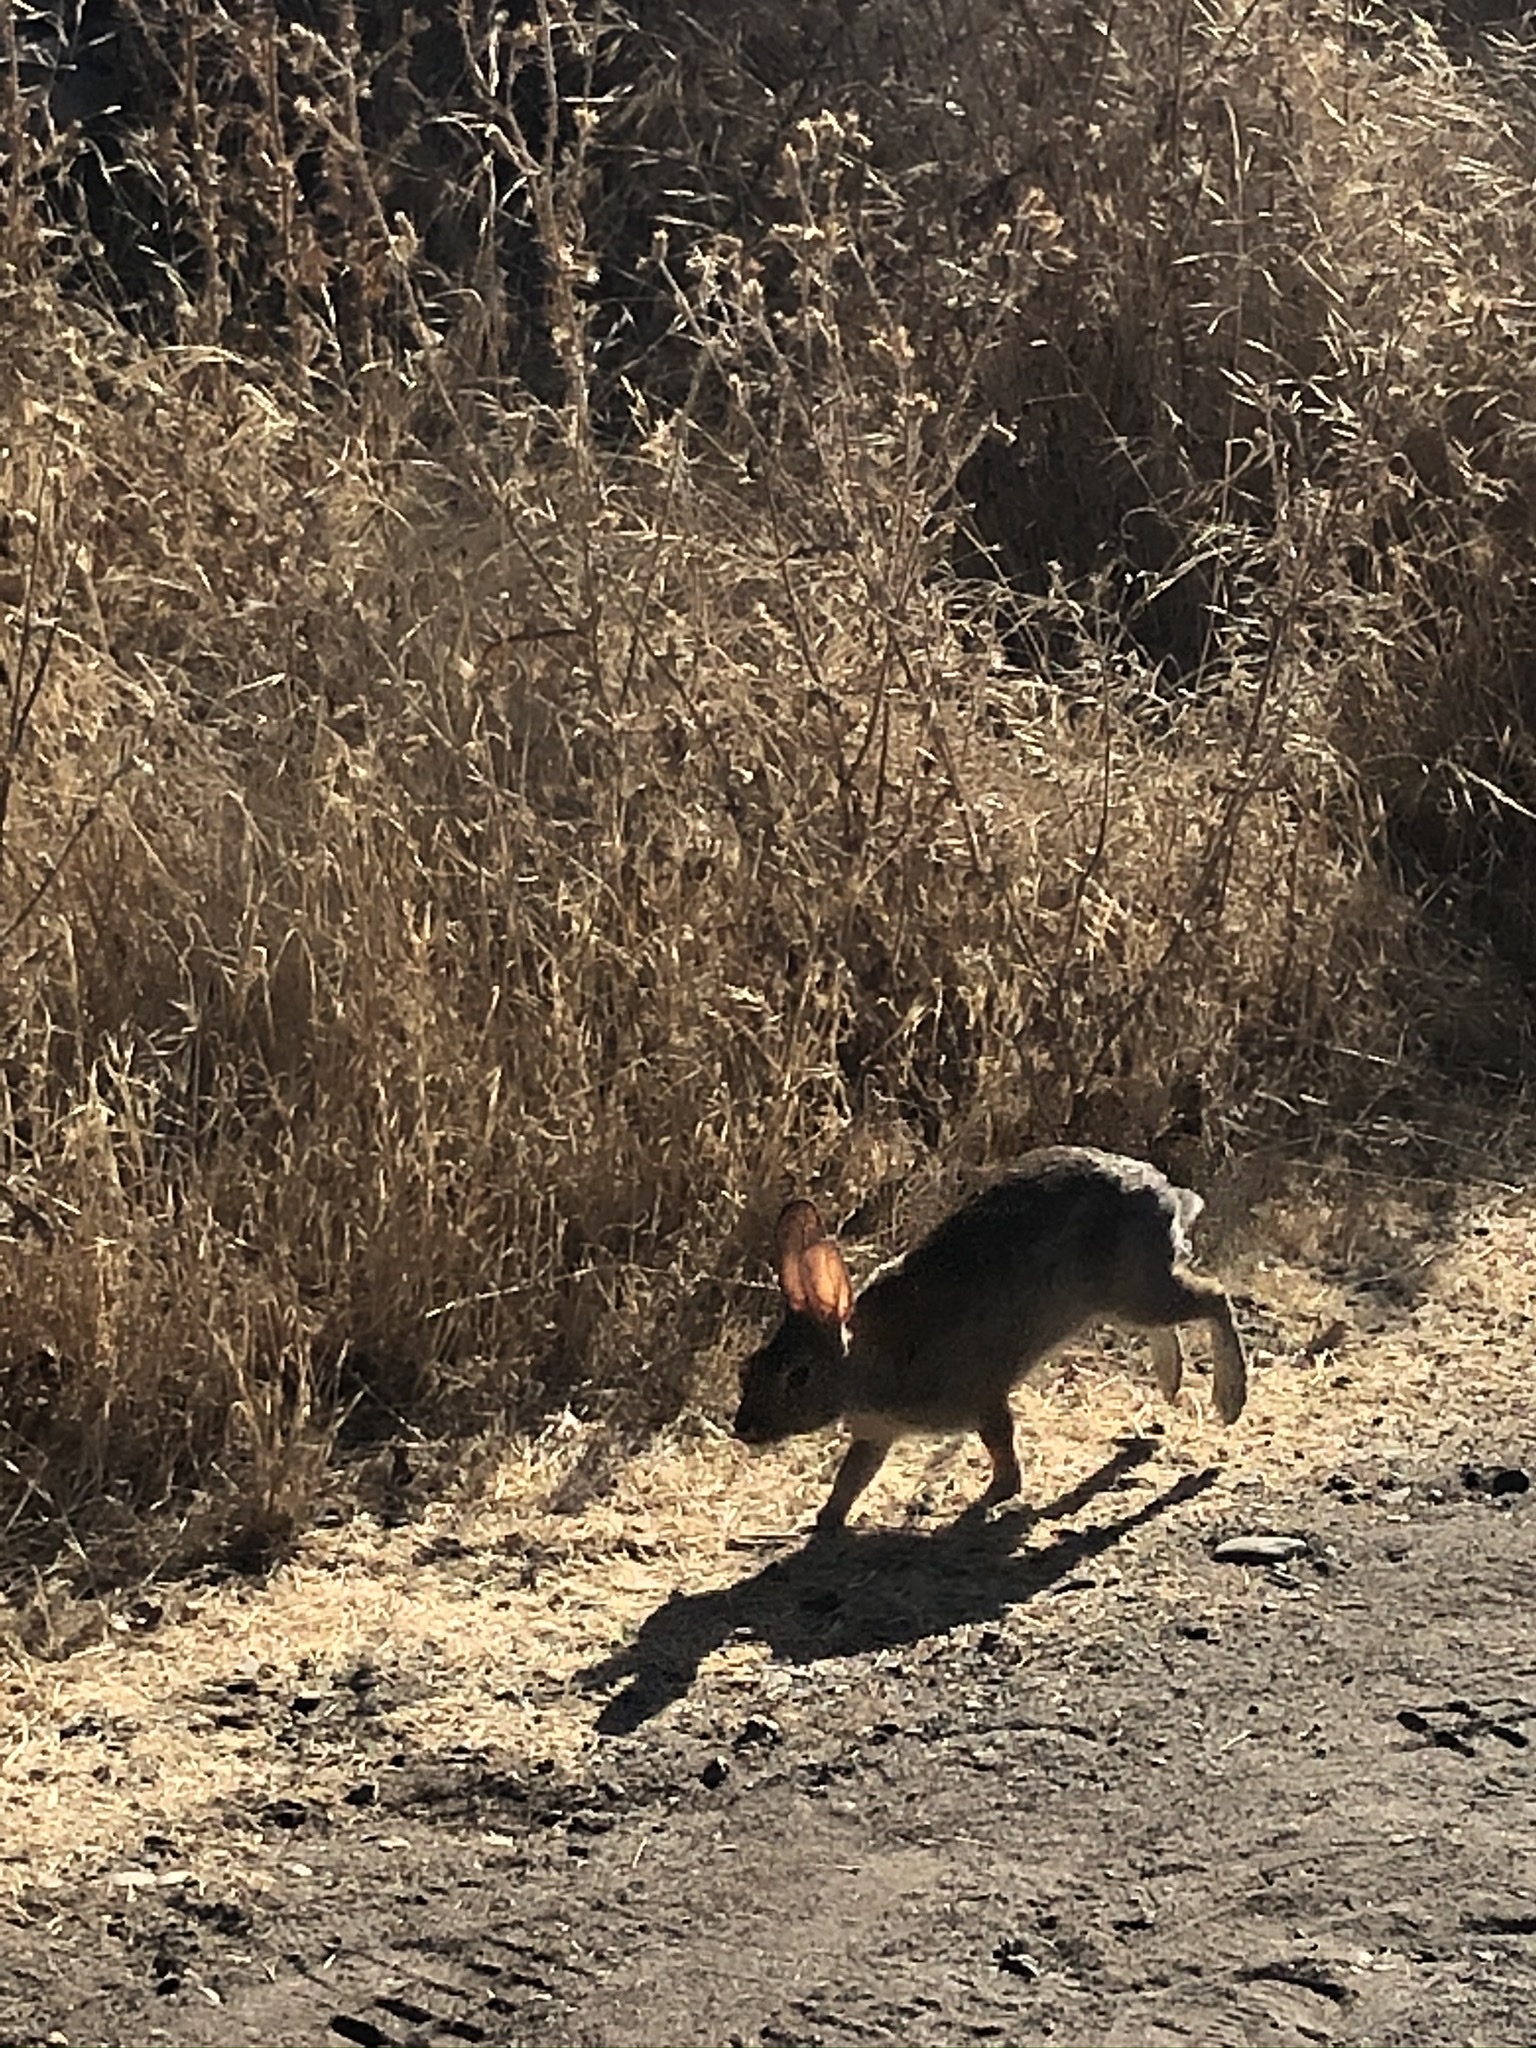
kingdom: Animalia
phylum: Chordata
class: Mammalia
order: Lagomorpha
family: Leporidae
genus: Sylvilagus
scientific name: Sylvilagus audubonii
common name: Desert cottontail
